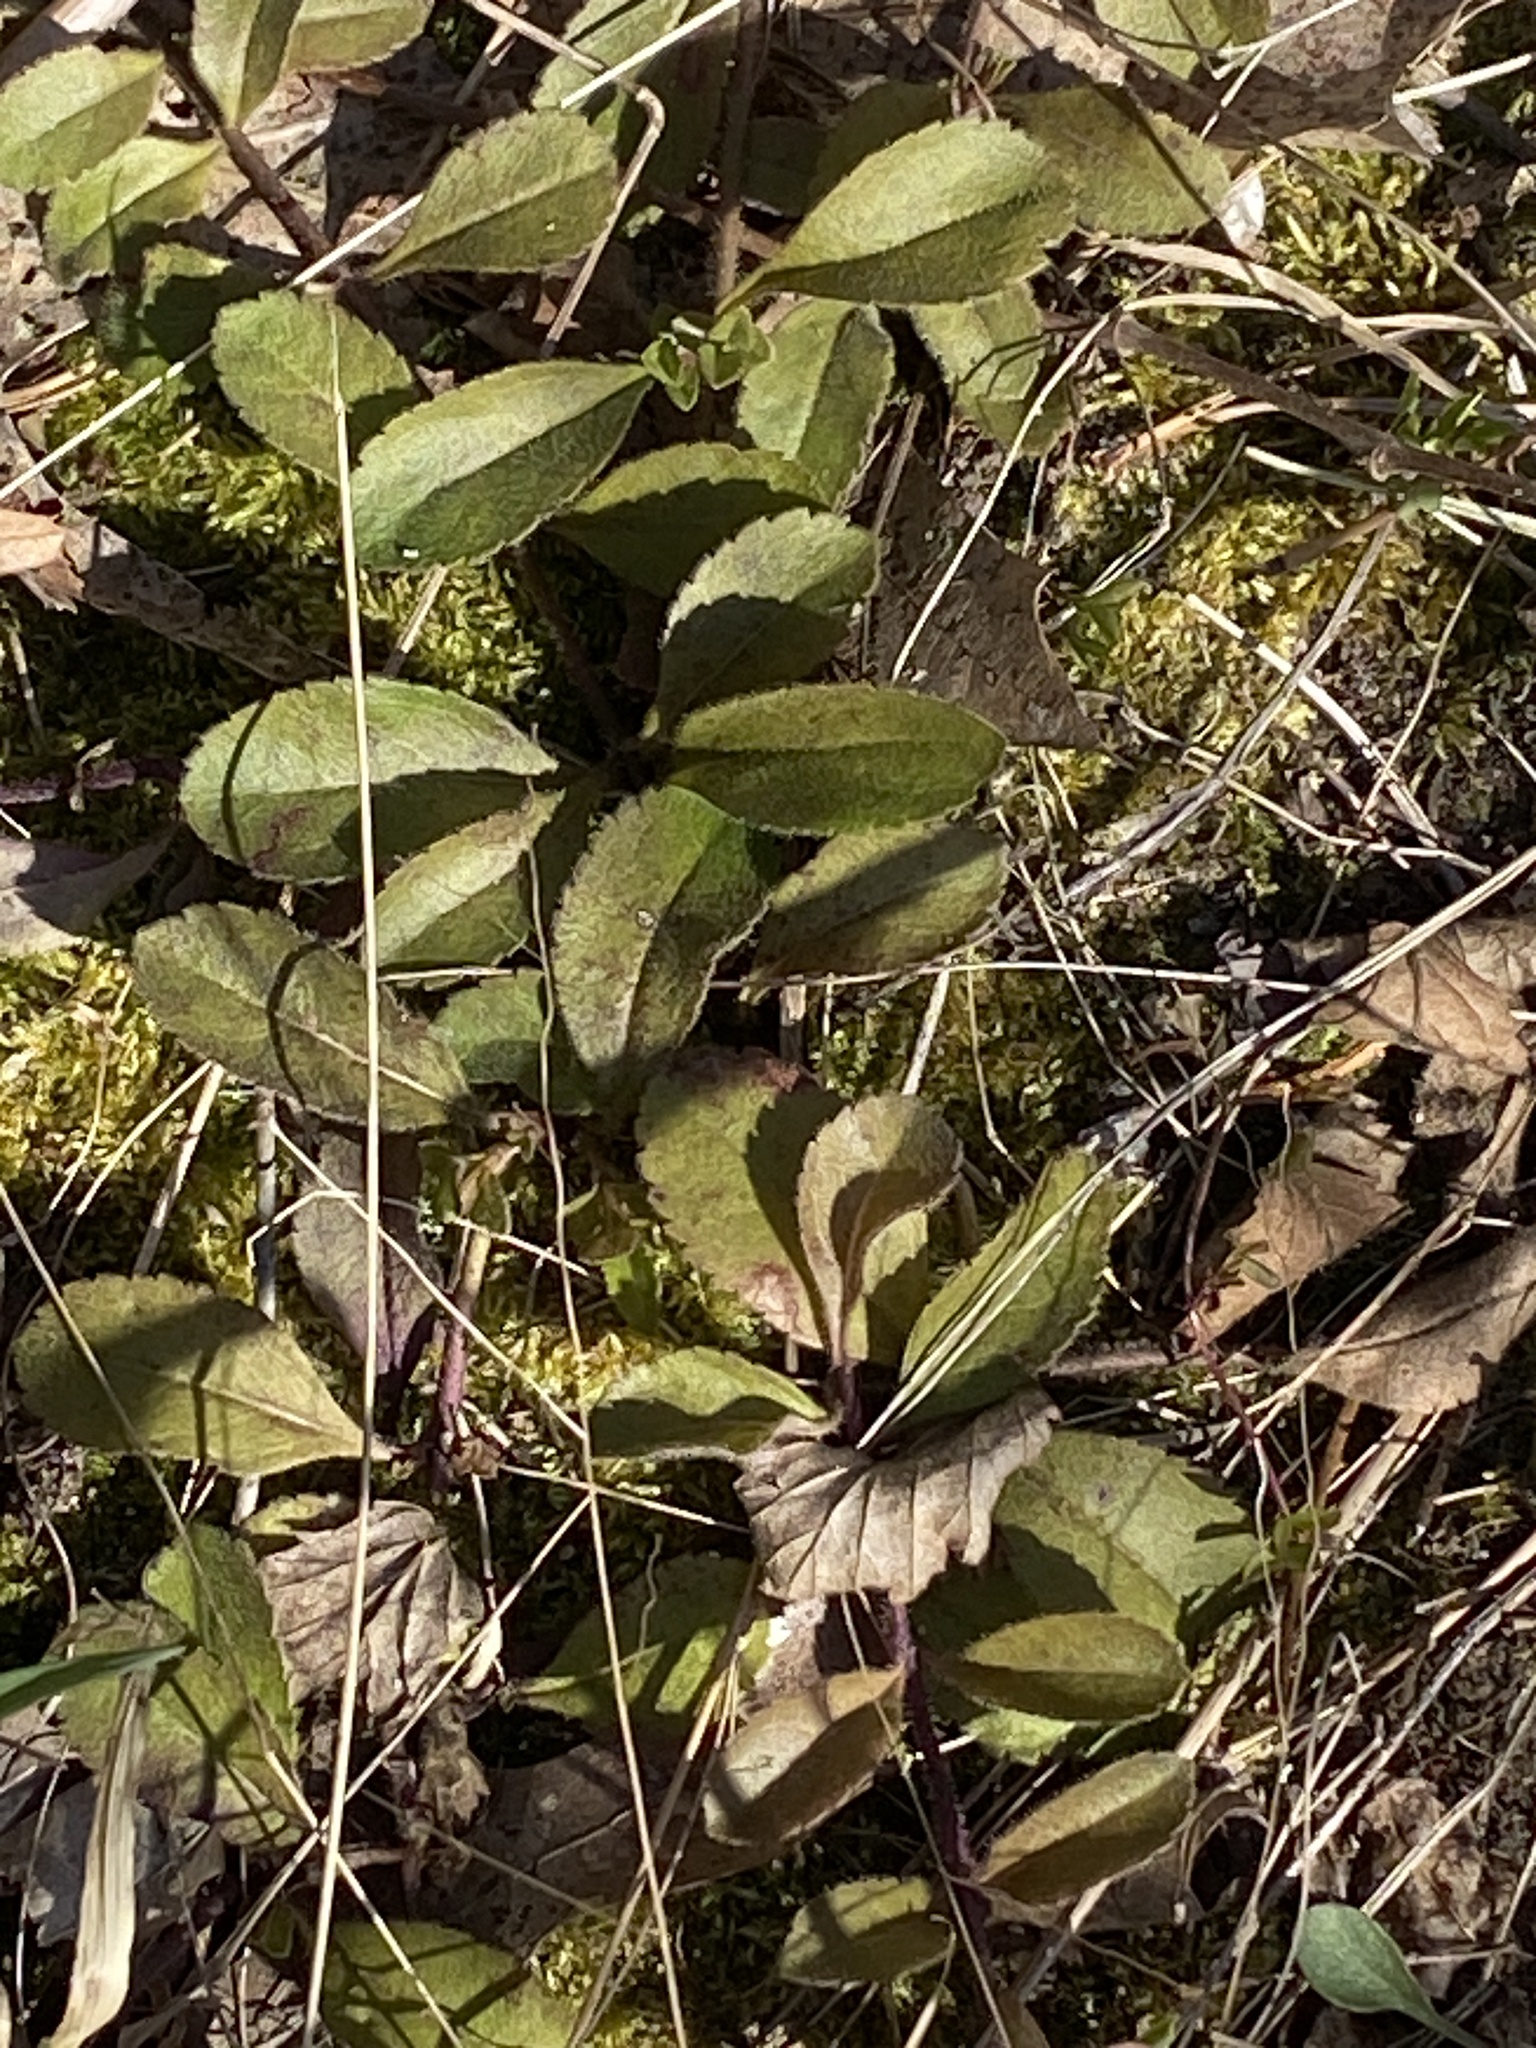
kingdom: Plantae
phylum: Tracheophyta
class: Magnoliopsida
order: Lamiales
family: Plantaginaceae
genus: Veronica
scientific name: Veronica officinalis
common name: Common speedwell
